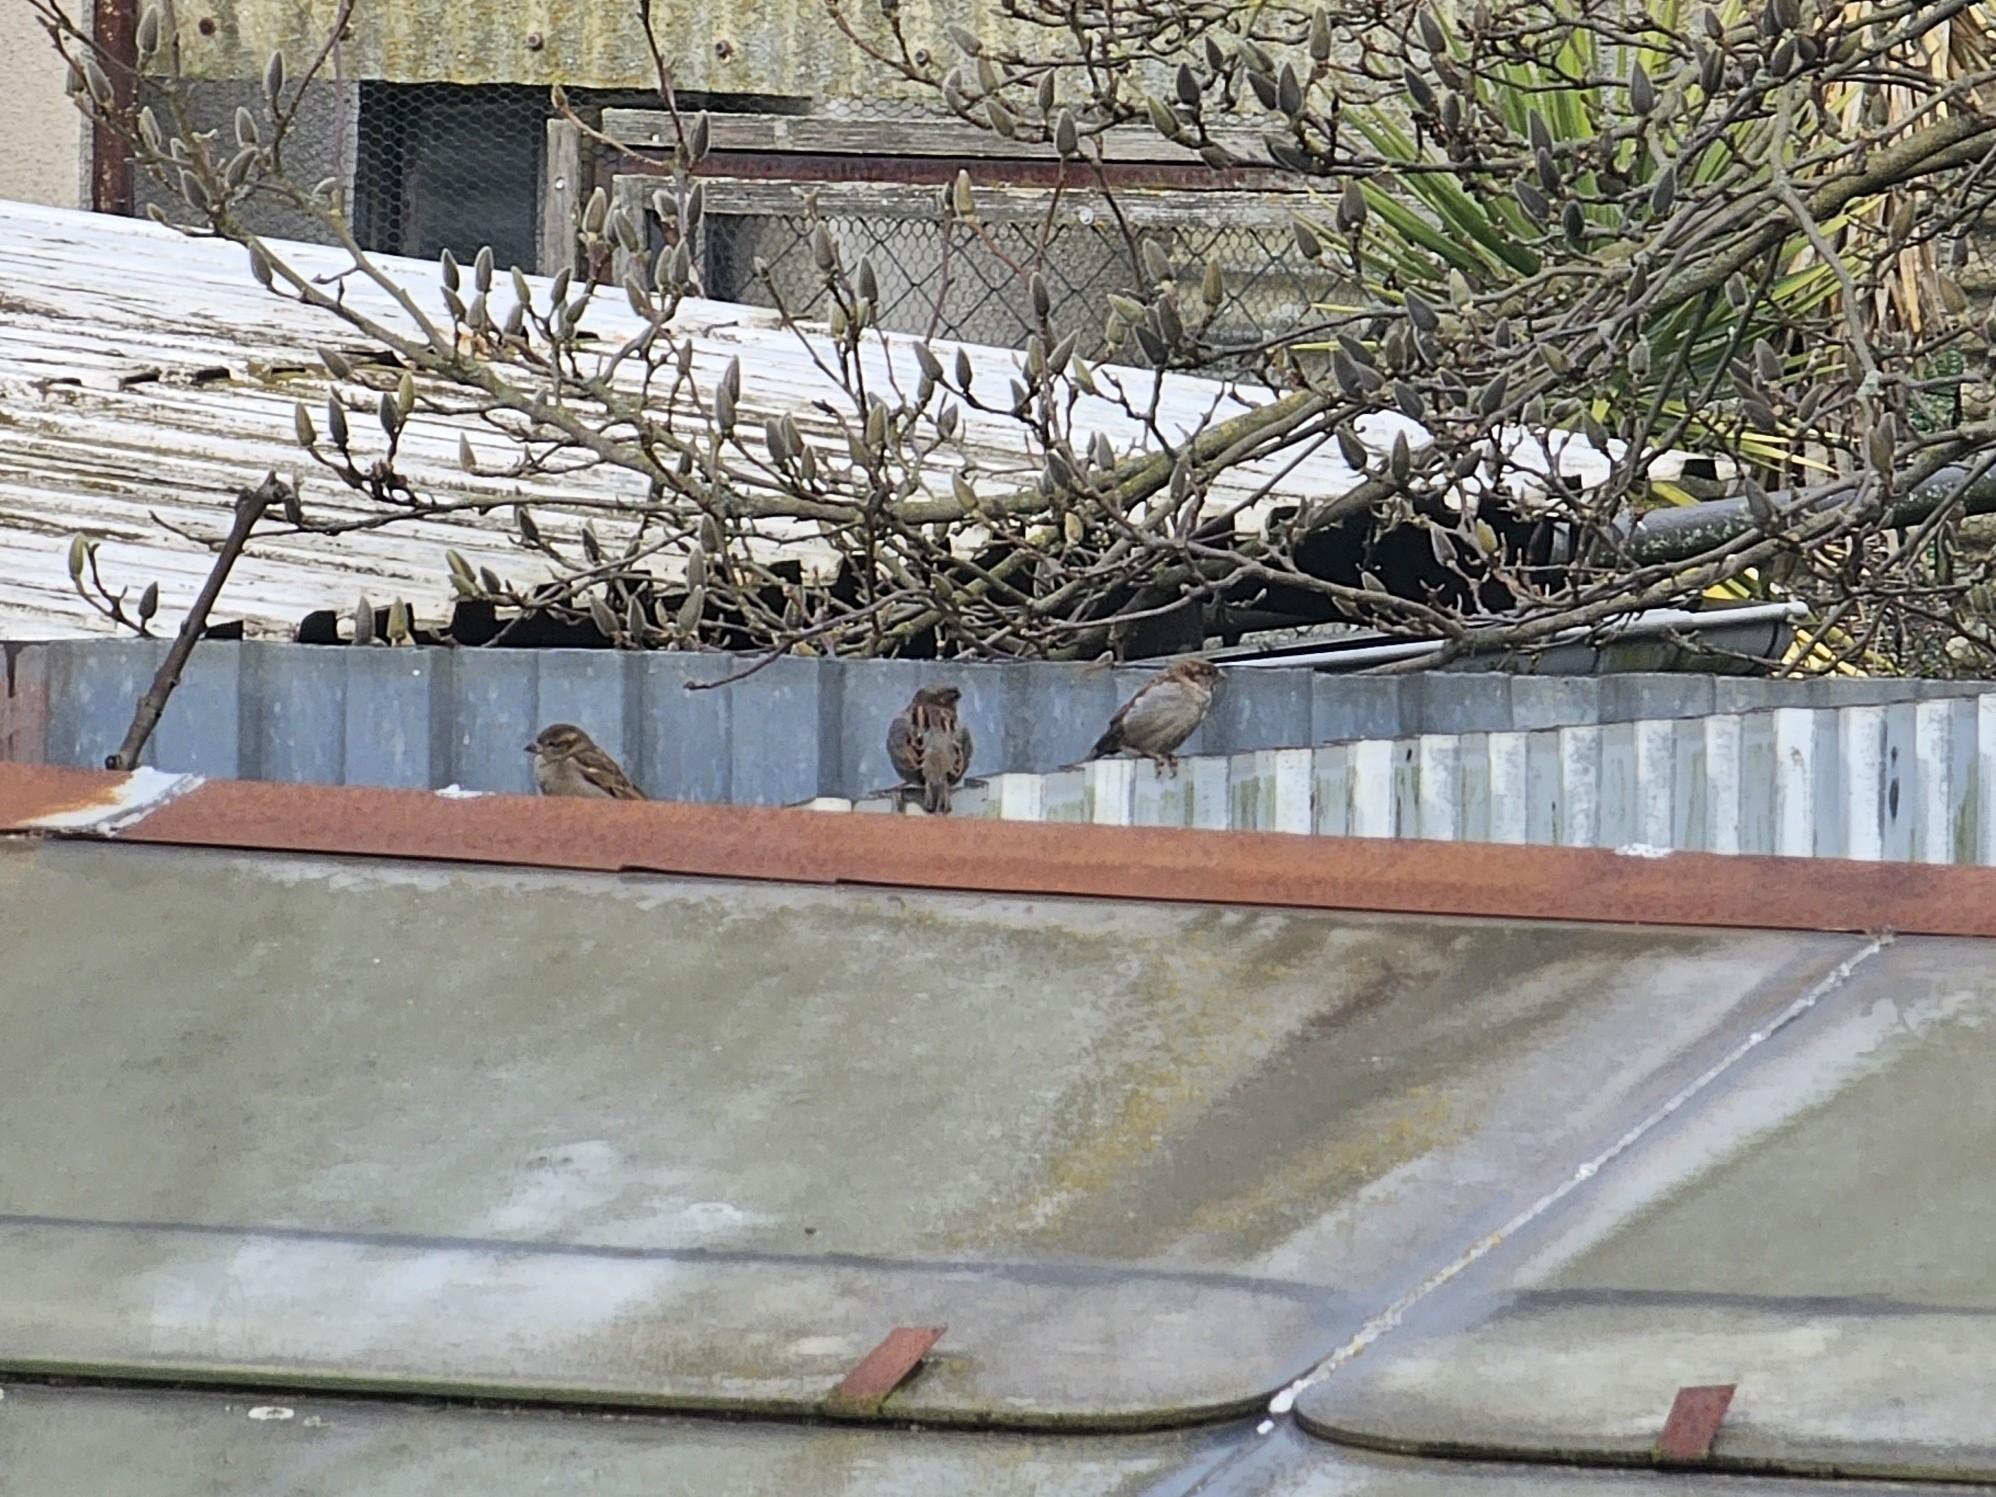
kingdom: Animalia
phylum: Chordata
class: Aves
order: Passeriformes
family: Passeridae
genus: Passer
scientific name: Passer domesticus
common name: House sparrow
